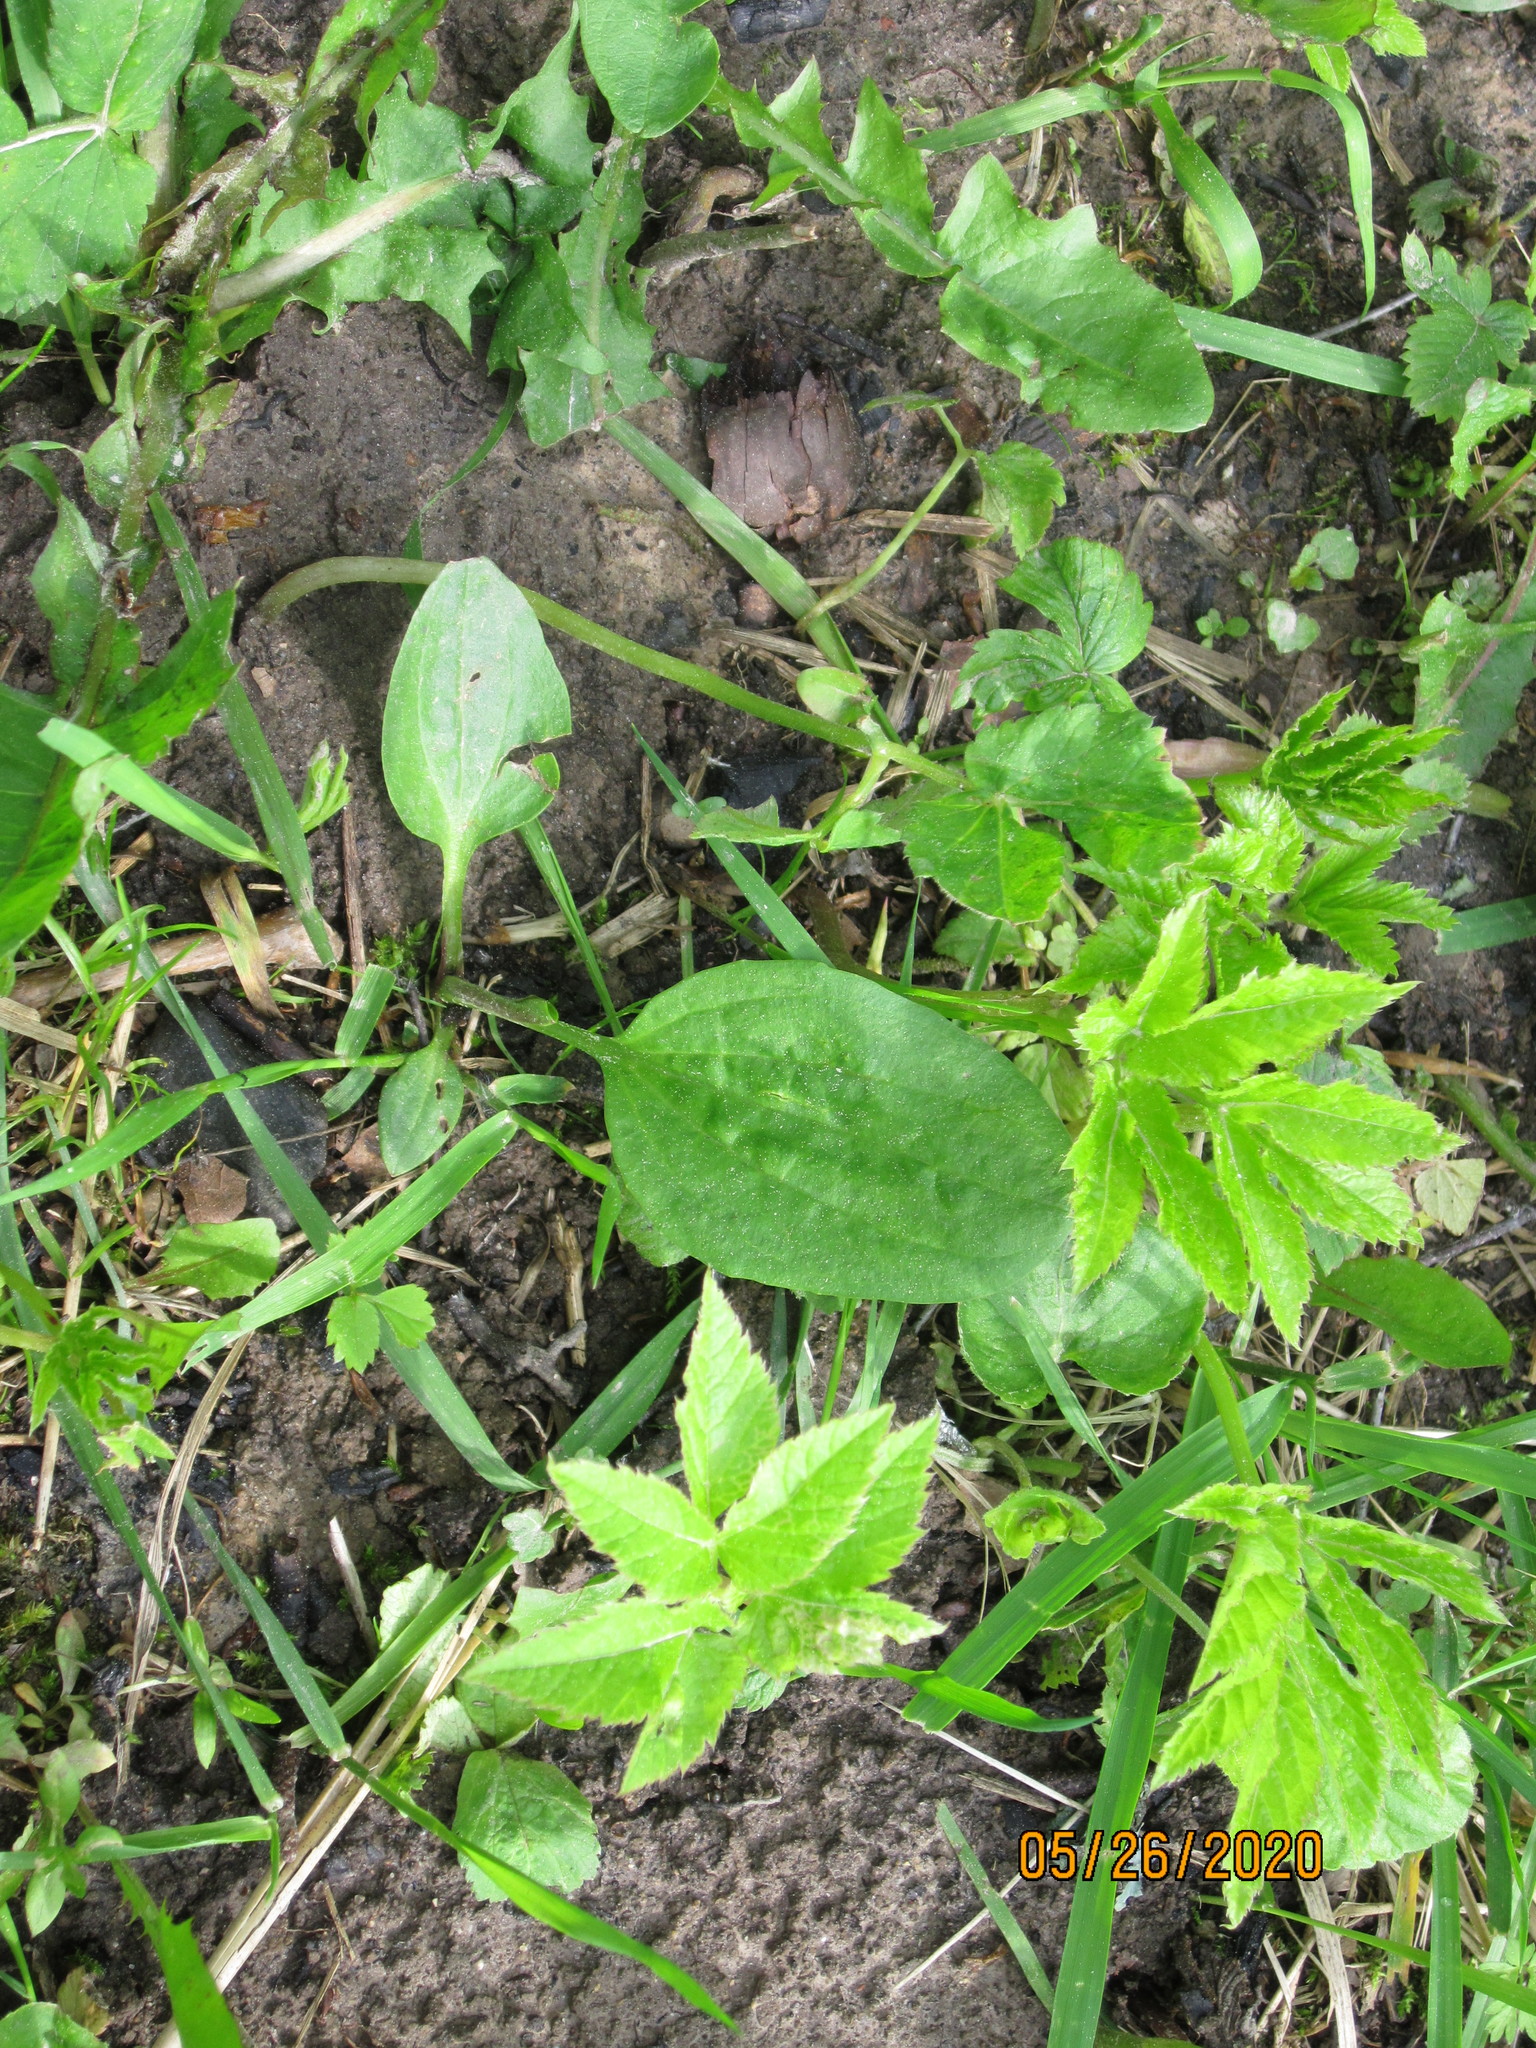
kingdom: Plantae
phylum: Tracheophyta
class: Magnoliopsida
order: Lamiales
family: Plantaginaceae
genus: Plantago
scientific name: Plantago major
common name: Common plantain
